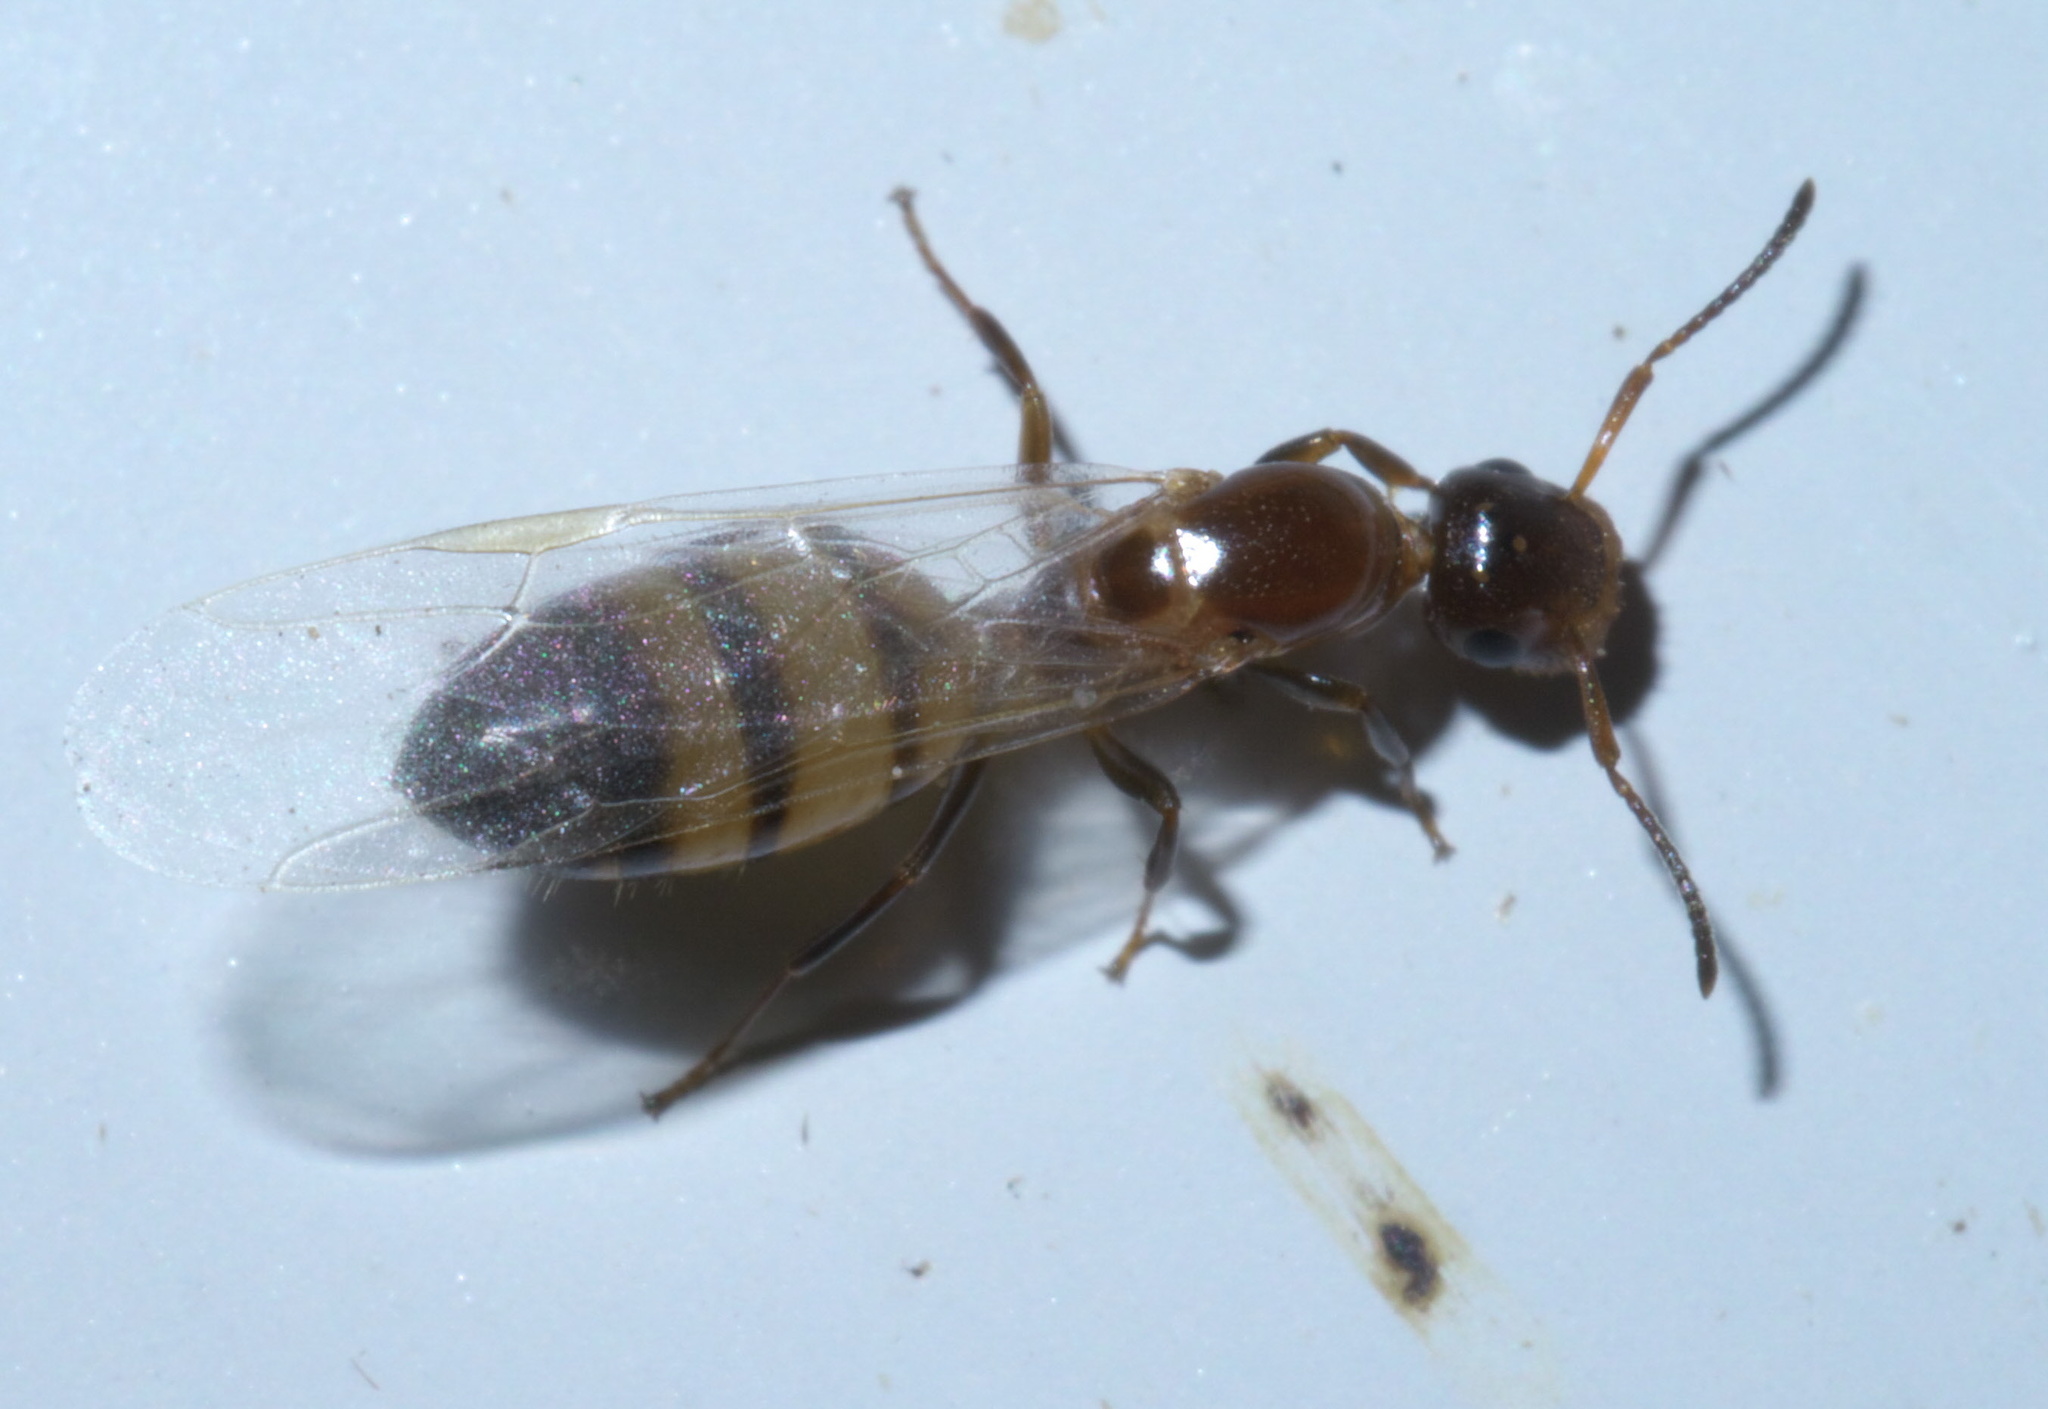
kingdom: Animalia
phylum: Arthropoda
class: Insecta
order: Hymenoptera
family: Formicidae
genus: Colobopsis
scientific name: Colobopsis impressa
